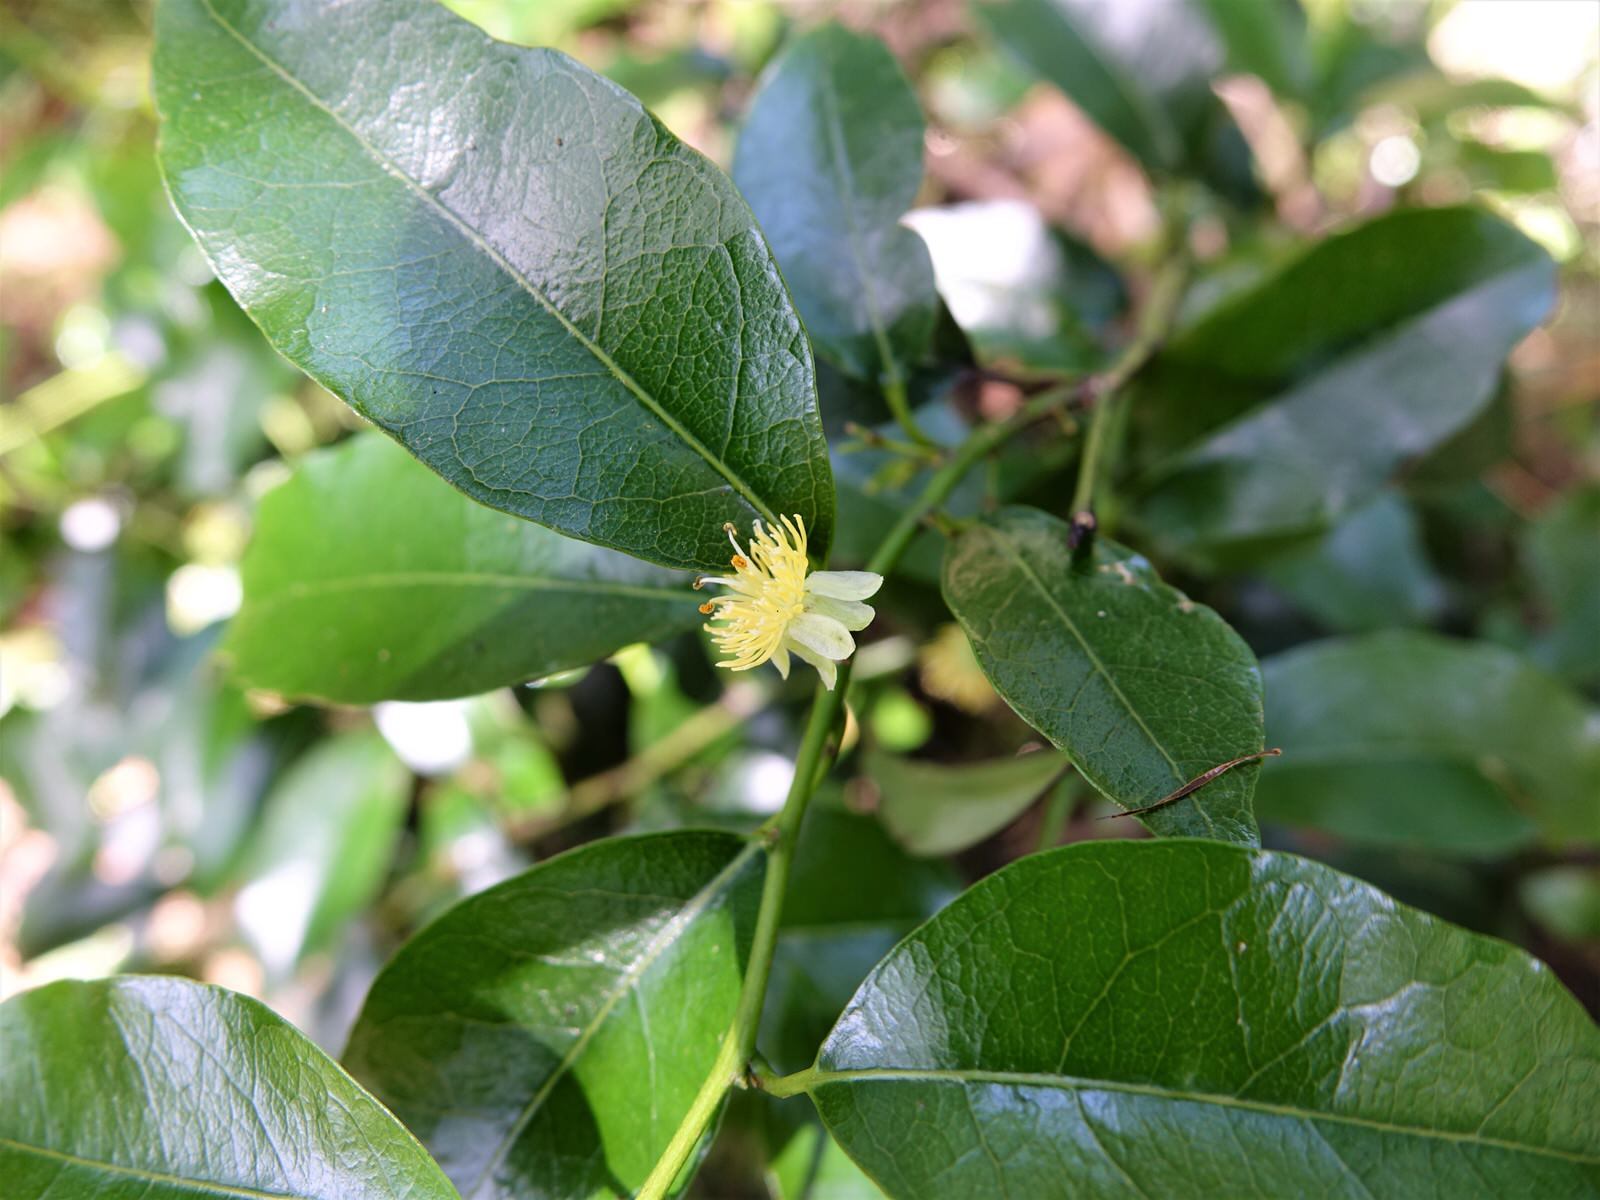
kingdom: Plantae
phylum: Tracheophyta
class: Magnoliopsida
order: Malpighiales
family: Passifloraceae
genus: Passiflora
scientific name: Passiflora tetrandra
